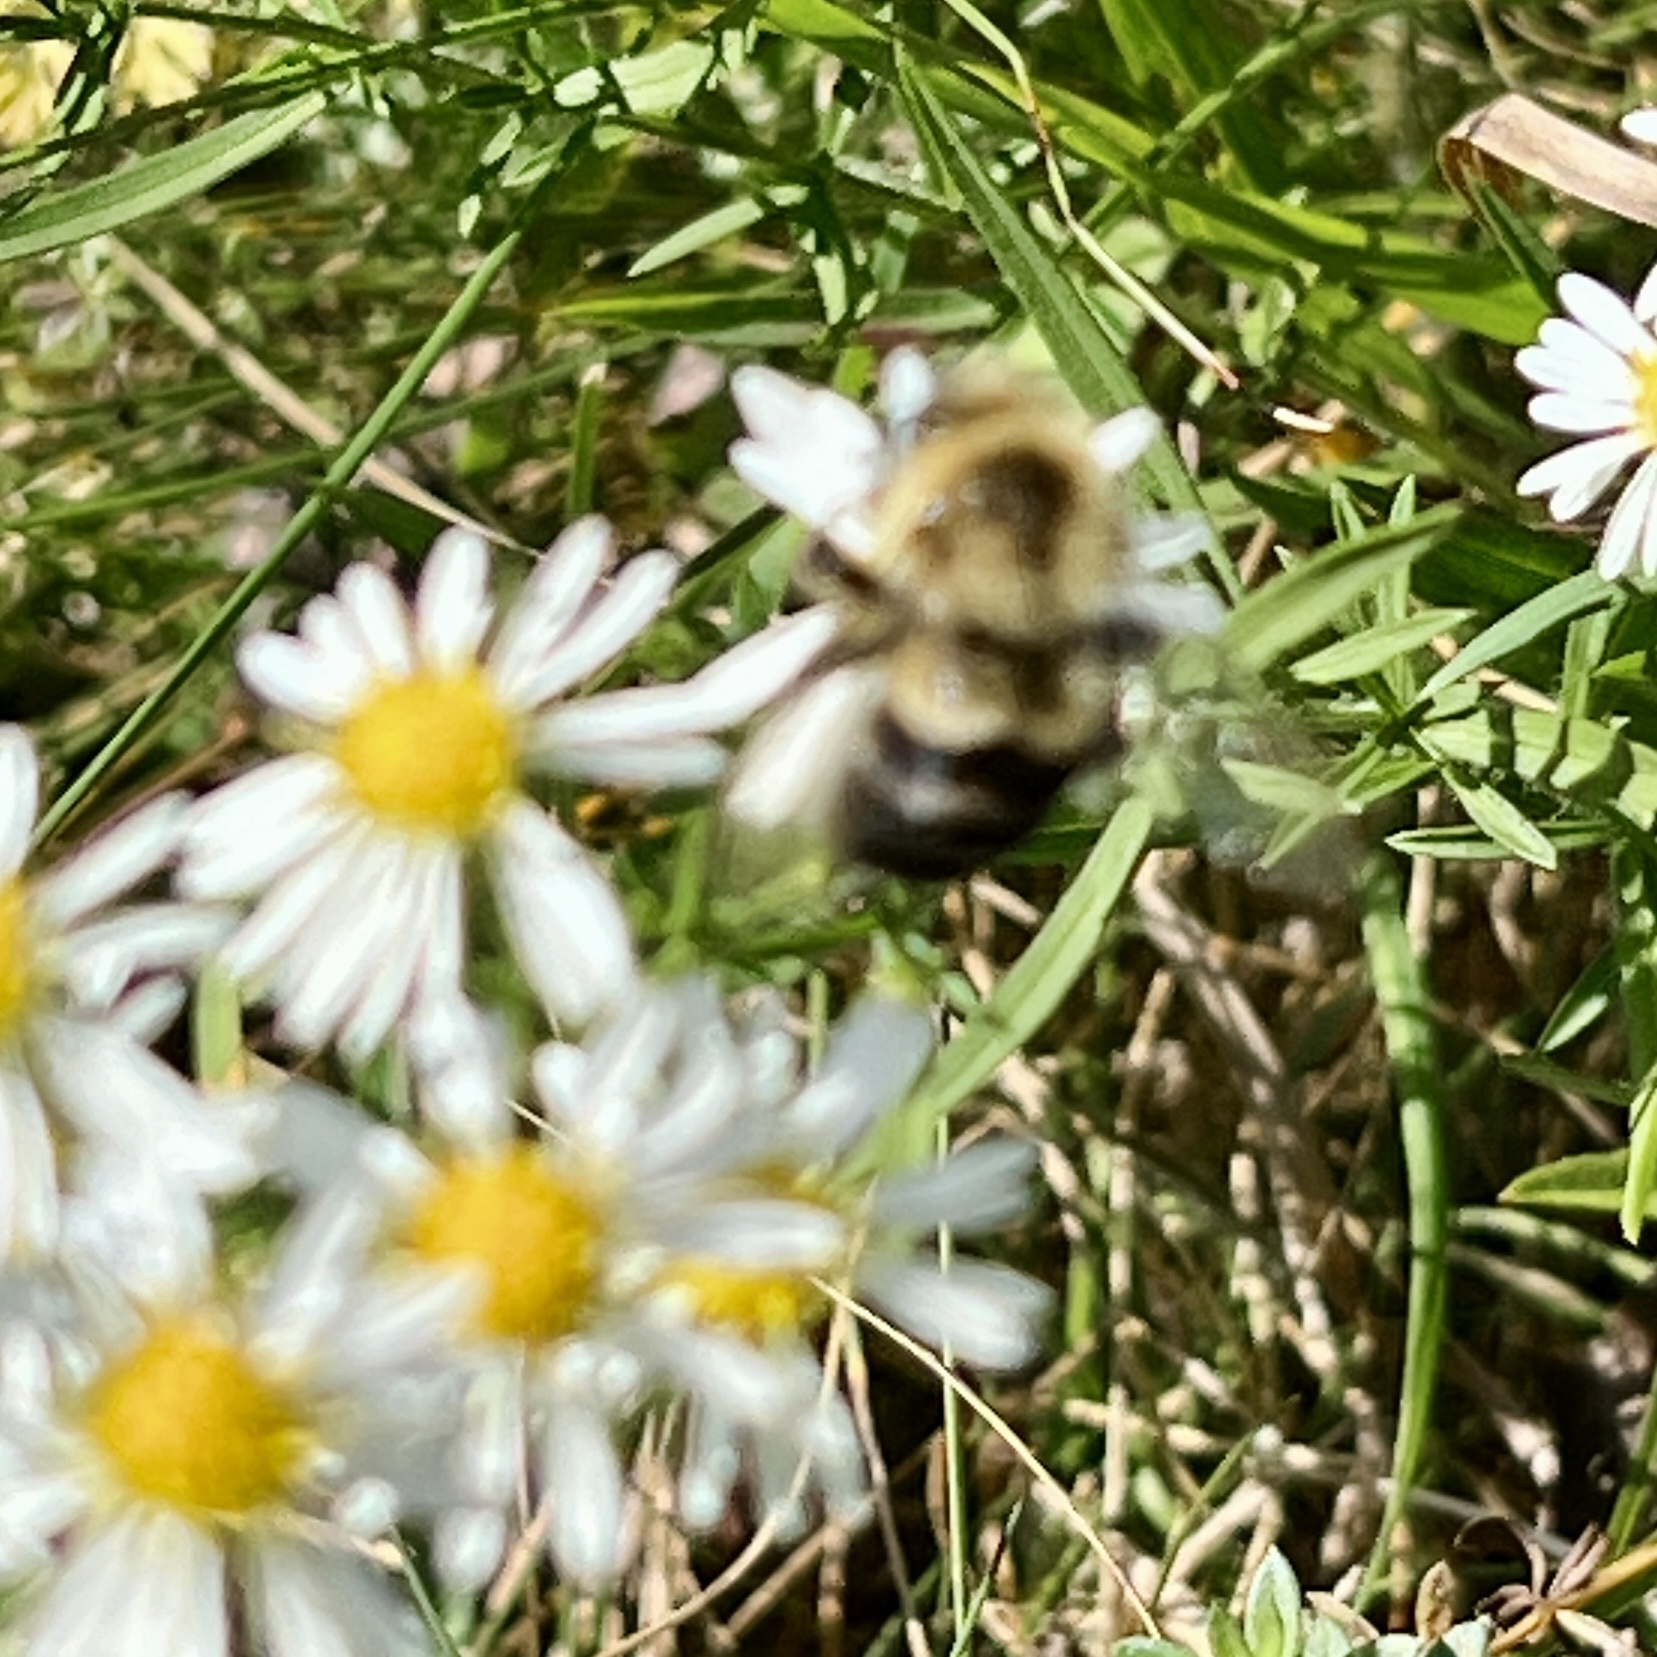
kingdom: Animalia
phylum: Arthropoda
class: Insecta
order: Hymenoptera
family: Apidae
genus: Bombus
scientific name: Bombus impatiens
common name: Common eastern bumble bee
